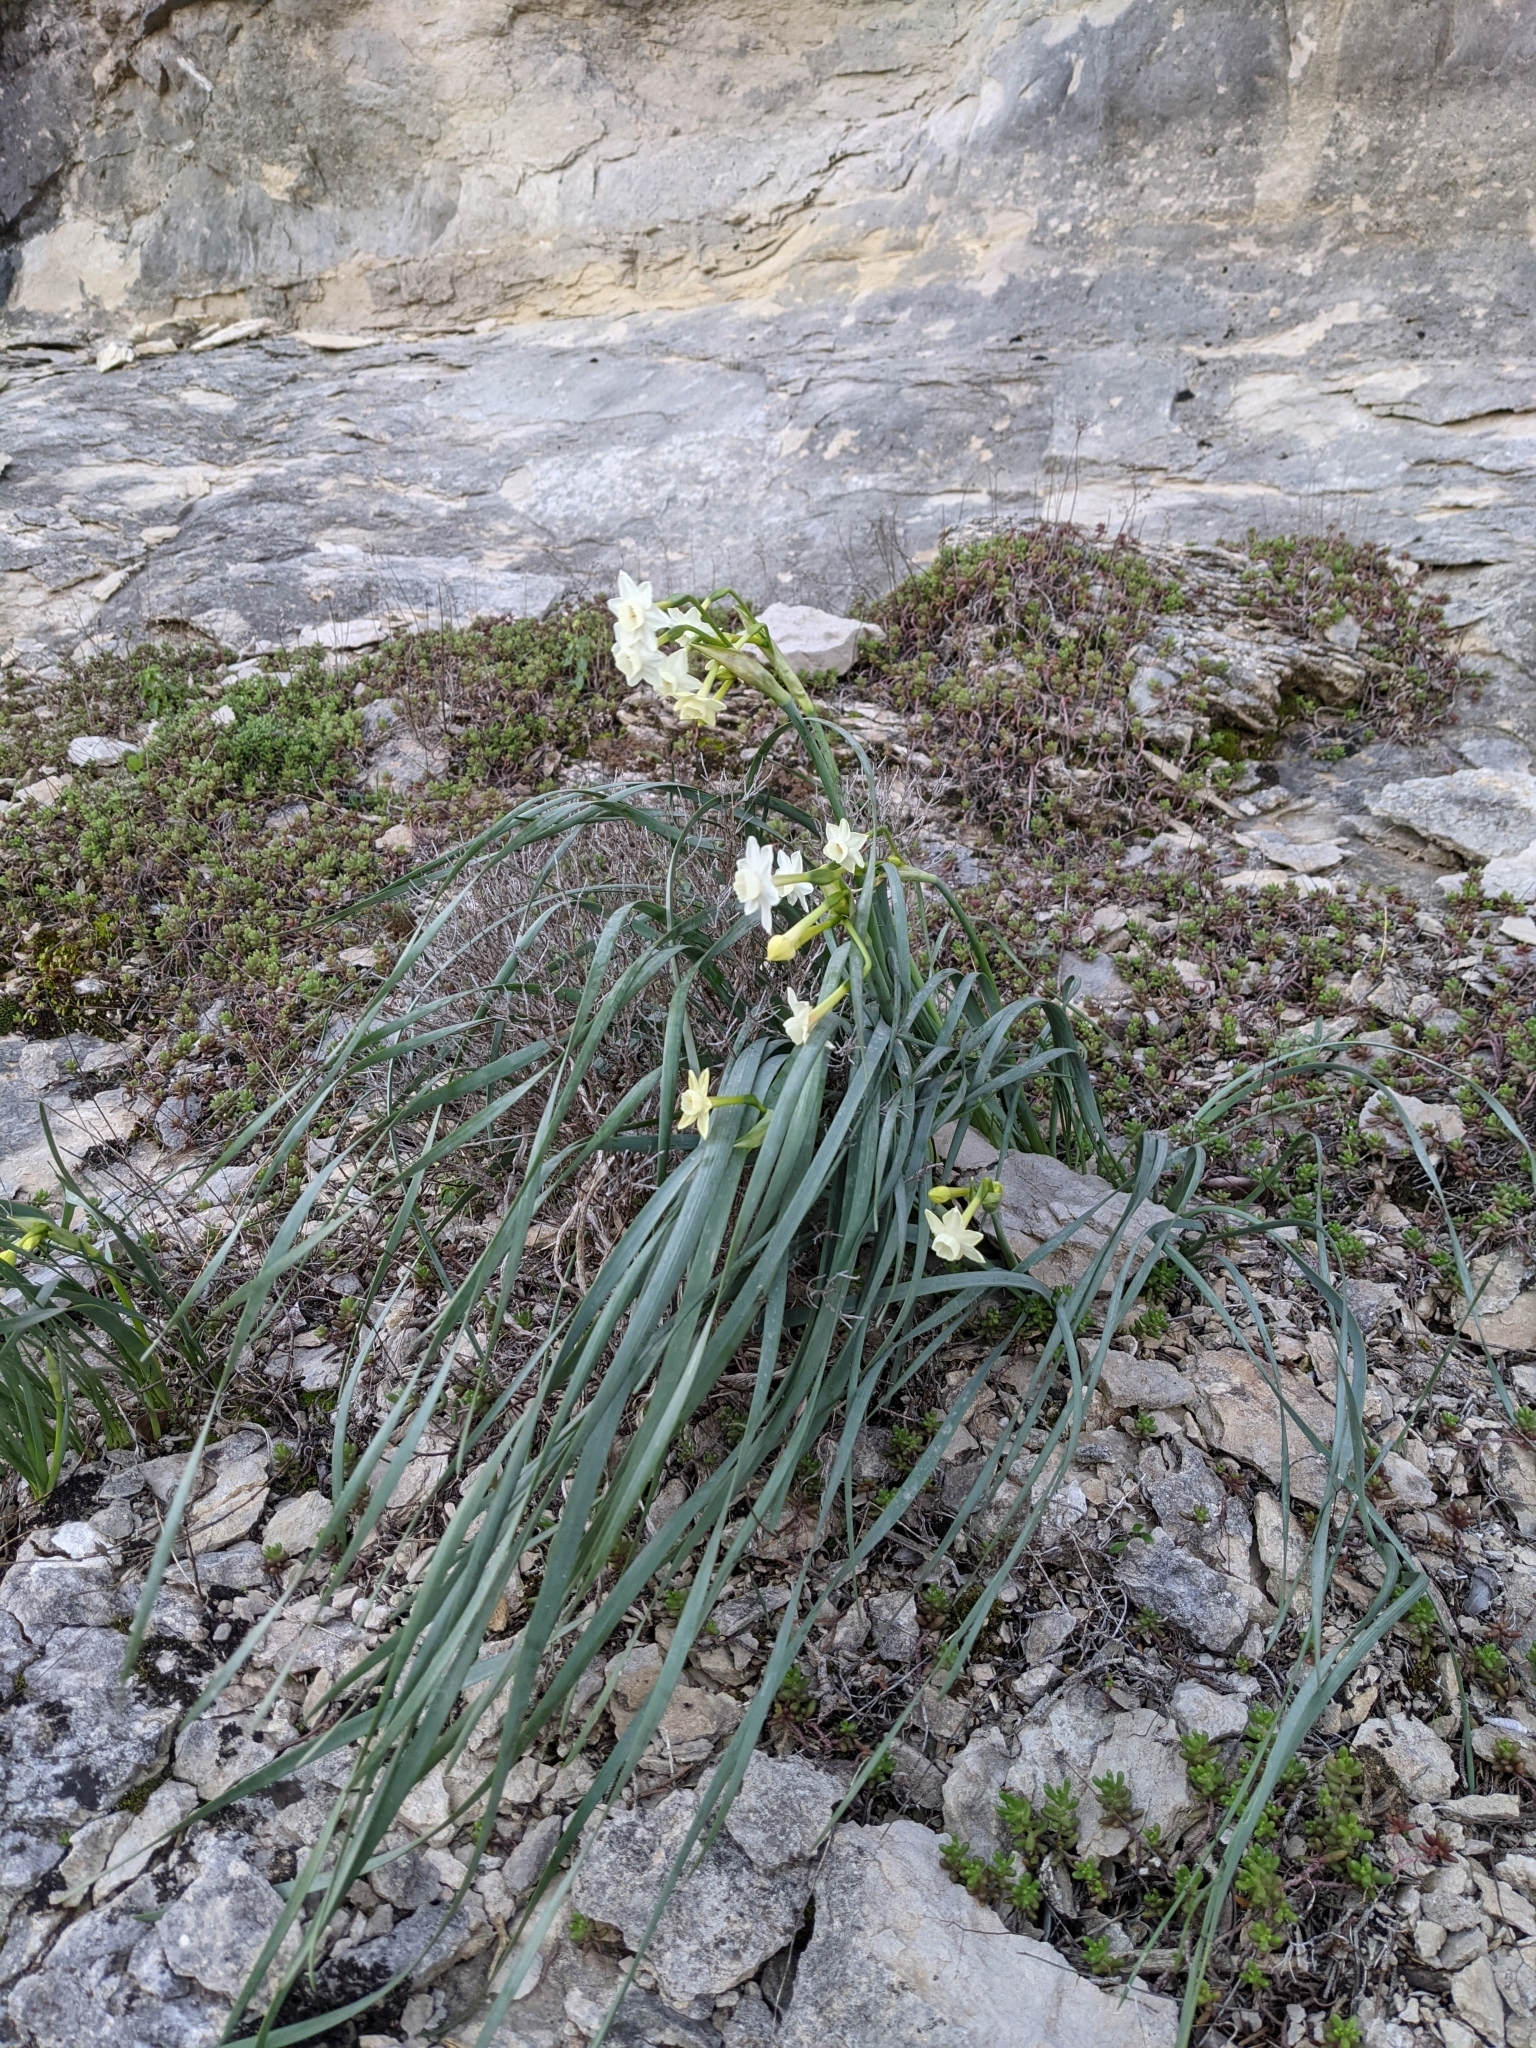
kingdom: Plantae
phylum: Tracheophyta
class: Liliopsida
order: Asparagales
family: Amaryllidaceae
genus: Narcissus
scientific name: Narcissus dubius
